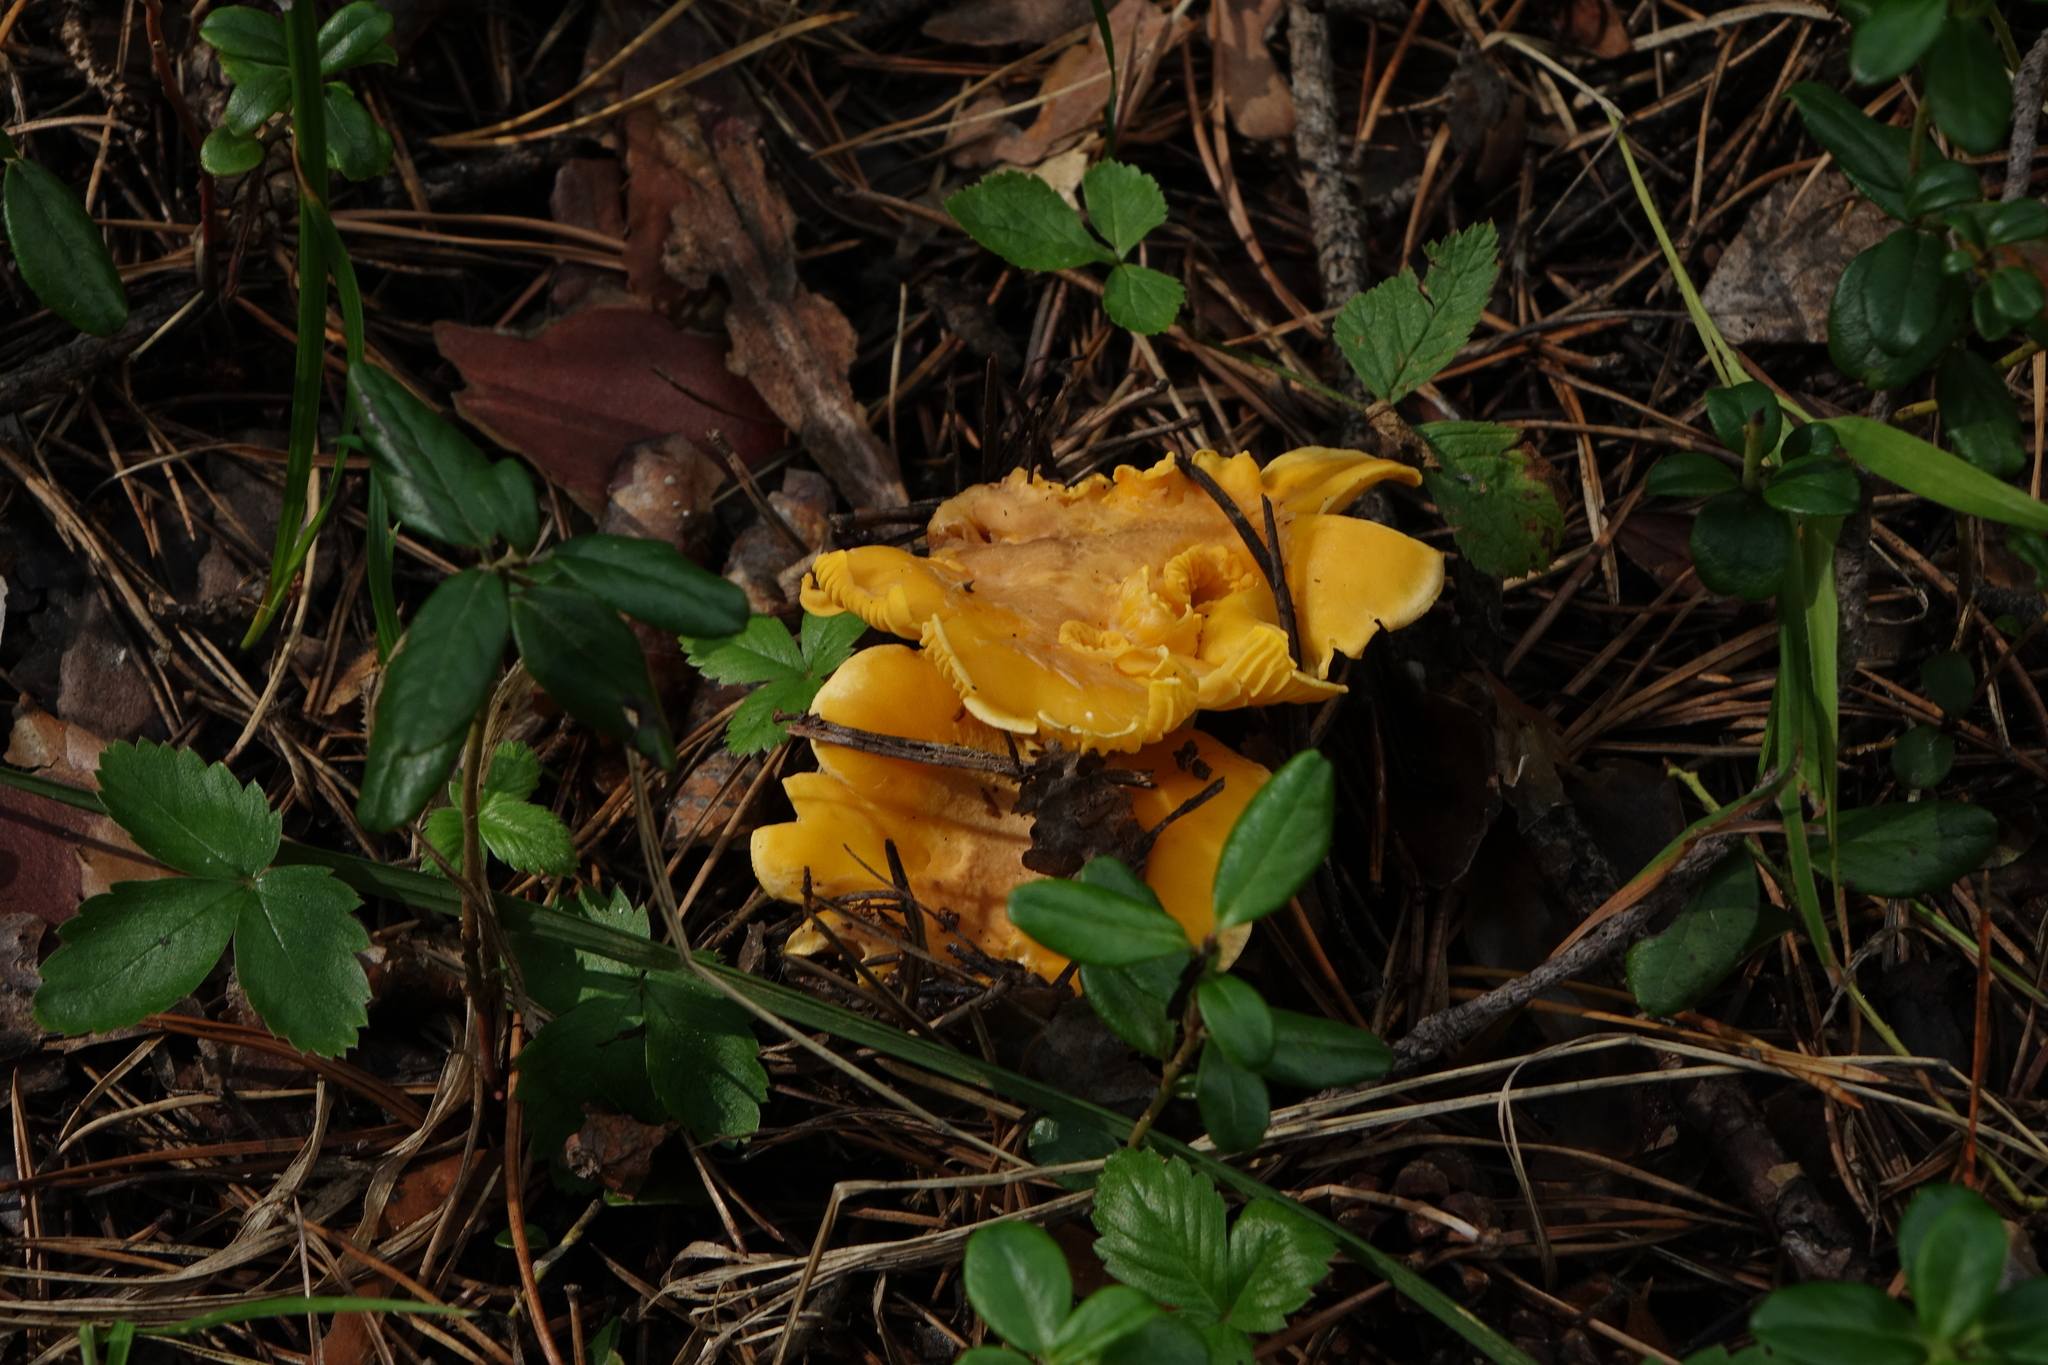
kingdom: Fungi
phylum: Basidiomycota
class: Agaricomycetes
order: Cantharellales
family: Hydnaceae
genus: Cantharellus
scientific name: Cantharellus cibarius
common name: Chanterelle
